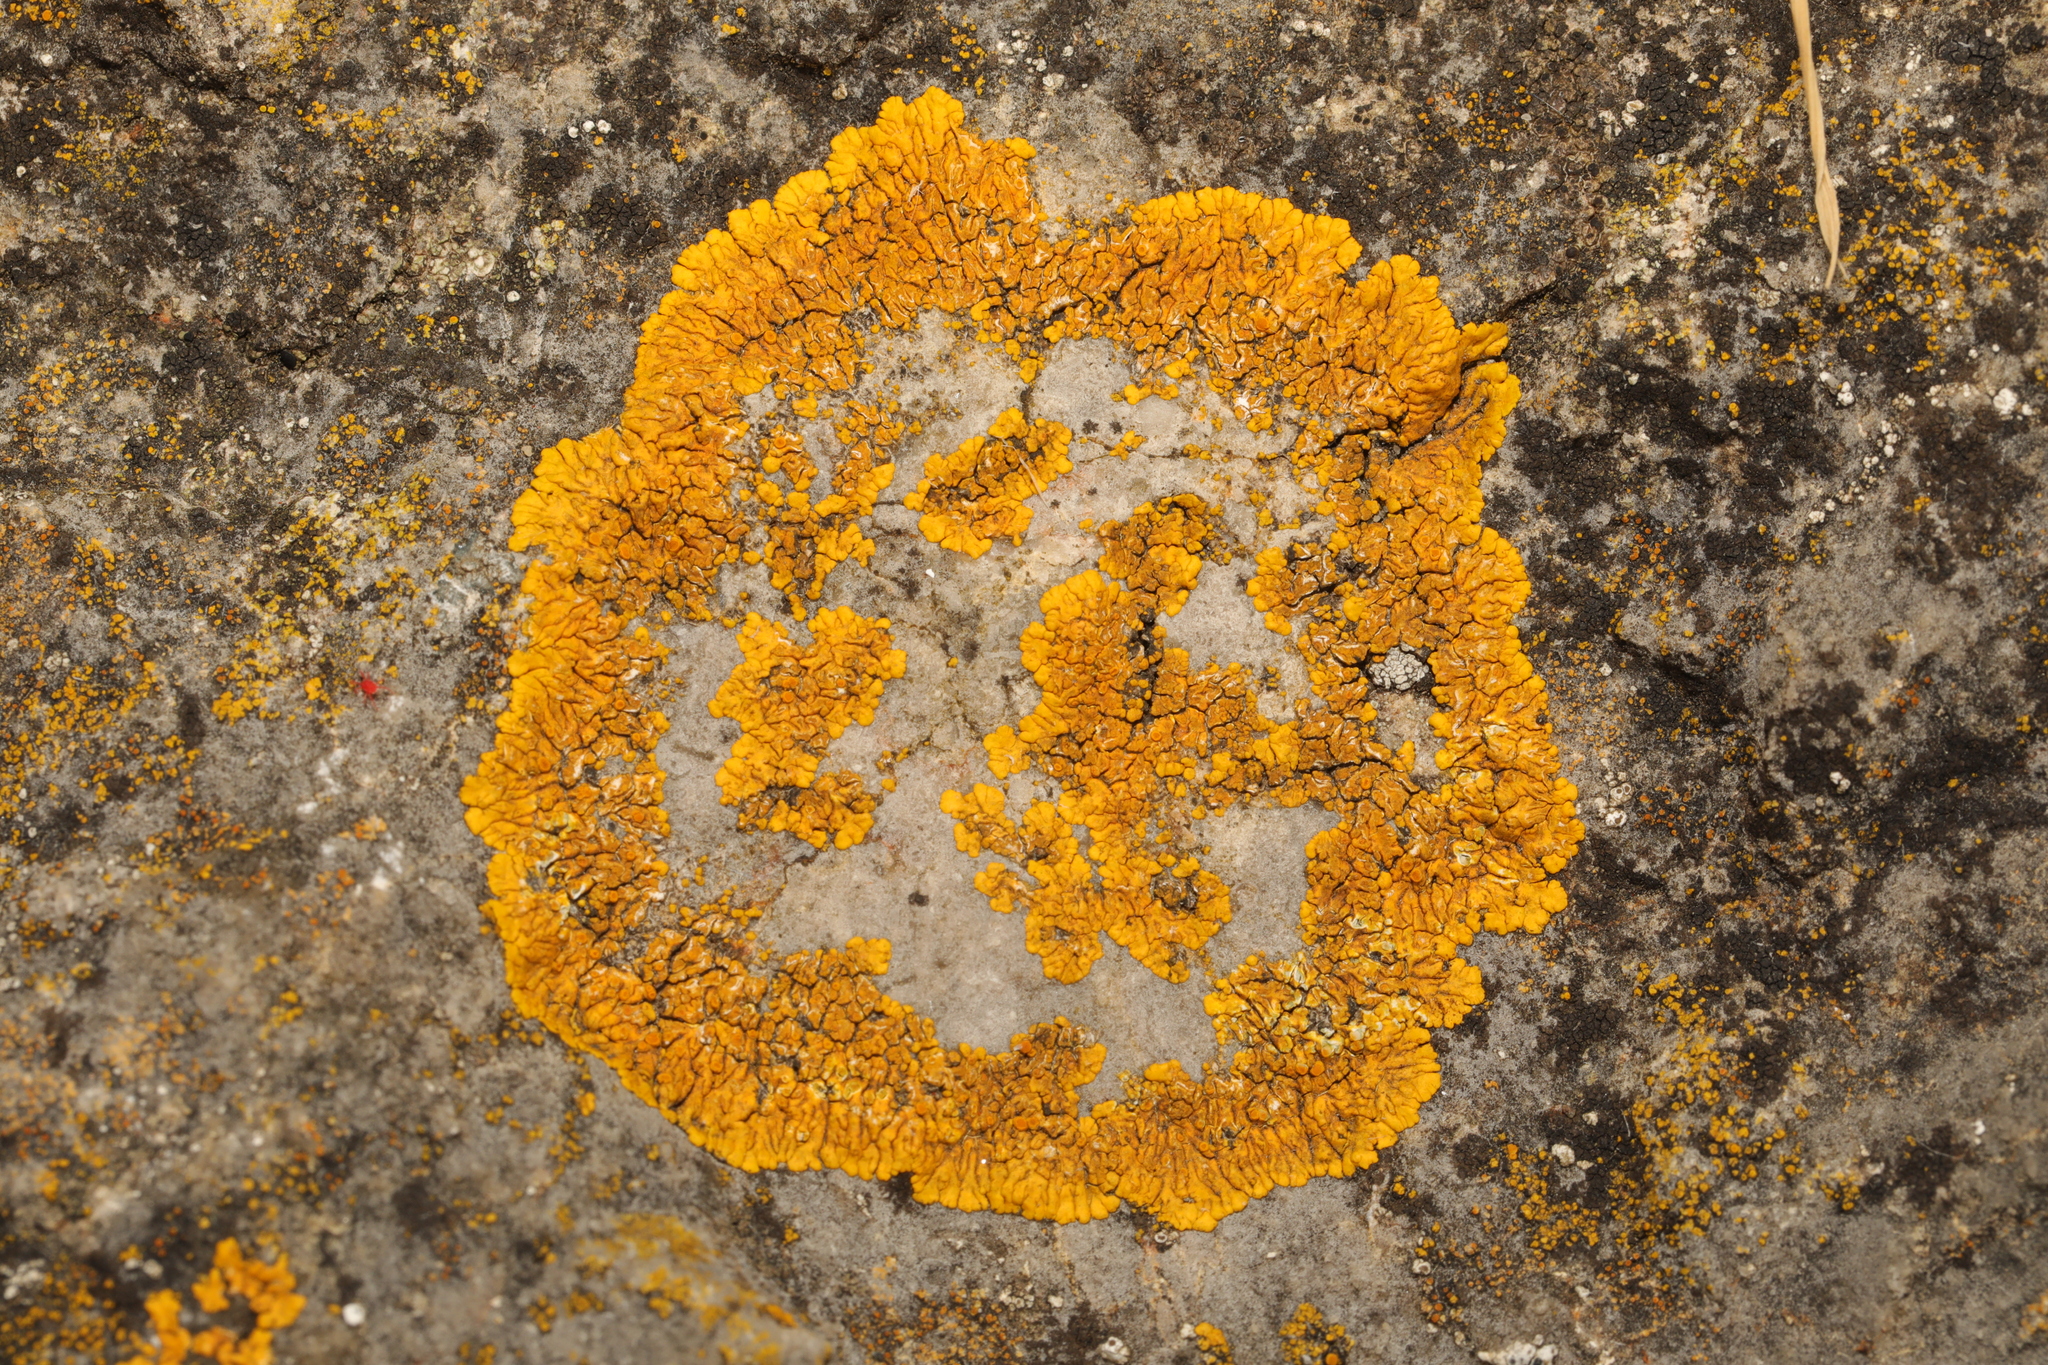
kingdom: Fungi
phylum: Ascomycota
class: Lecanoromycetes
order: Teloschistales
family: Teloschistaceae
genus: Variospora
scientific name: Variospora flavescens
